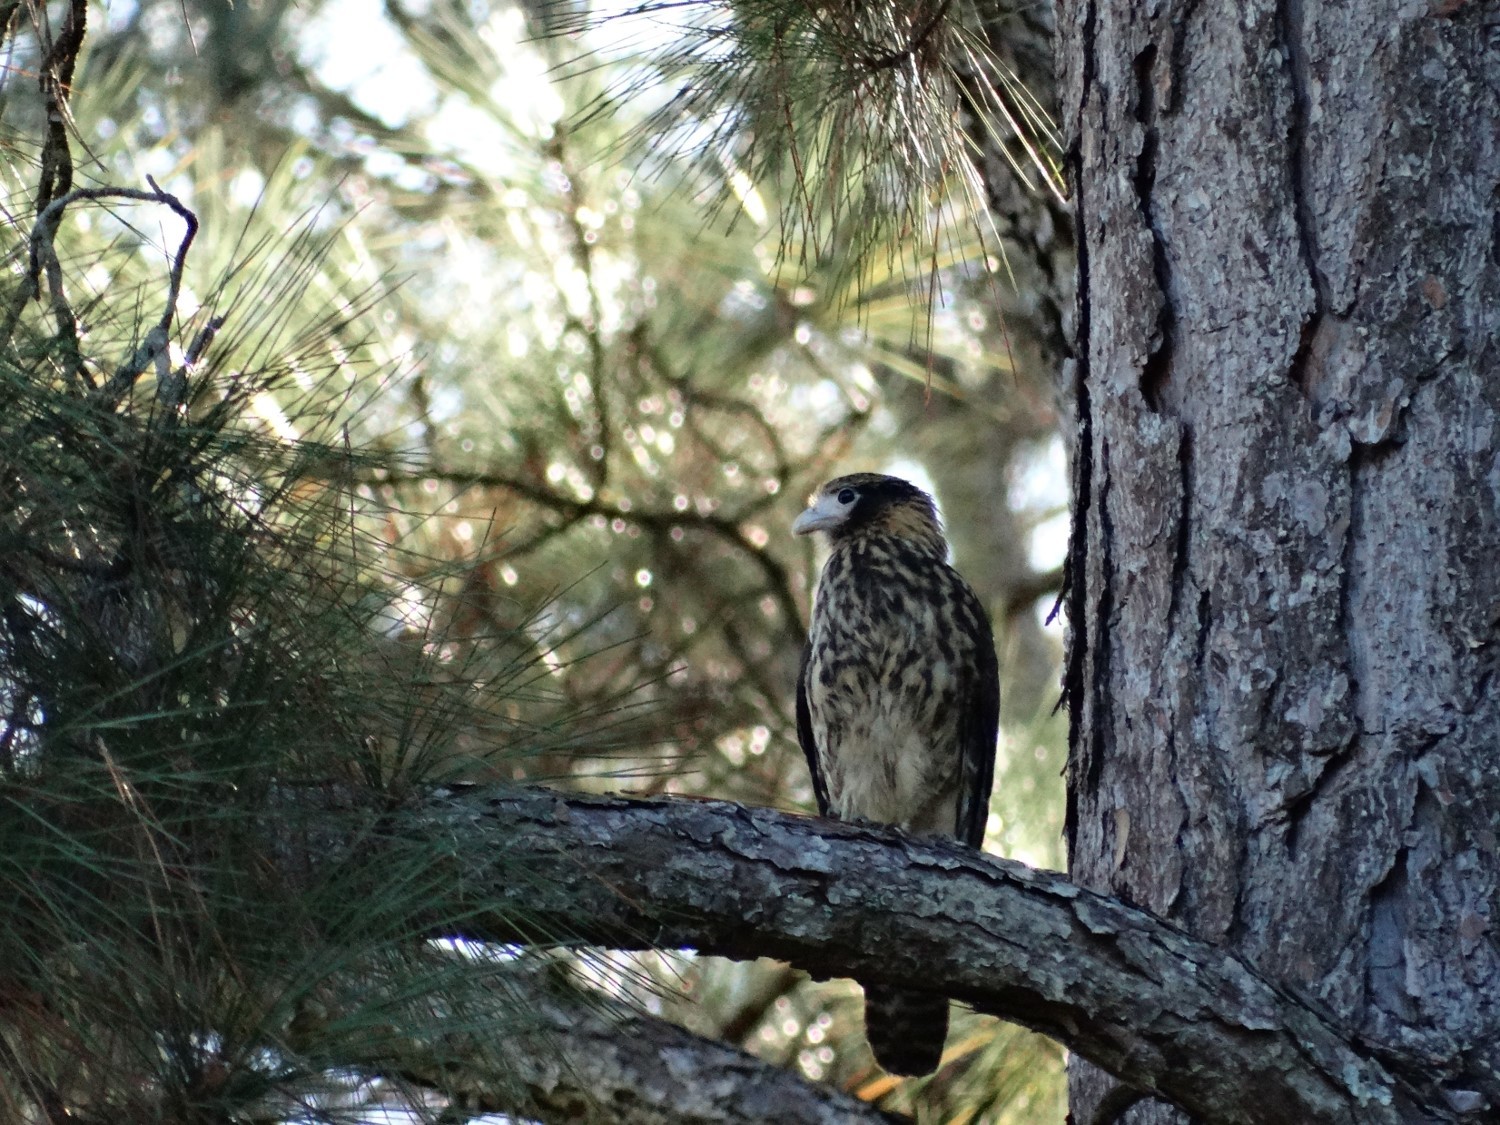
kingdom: Animalia
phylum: Chordata
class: Aves
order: Falconiformes
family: Falconidae
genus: Daptrius
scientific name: Daptrius
